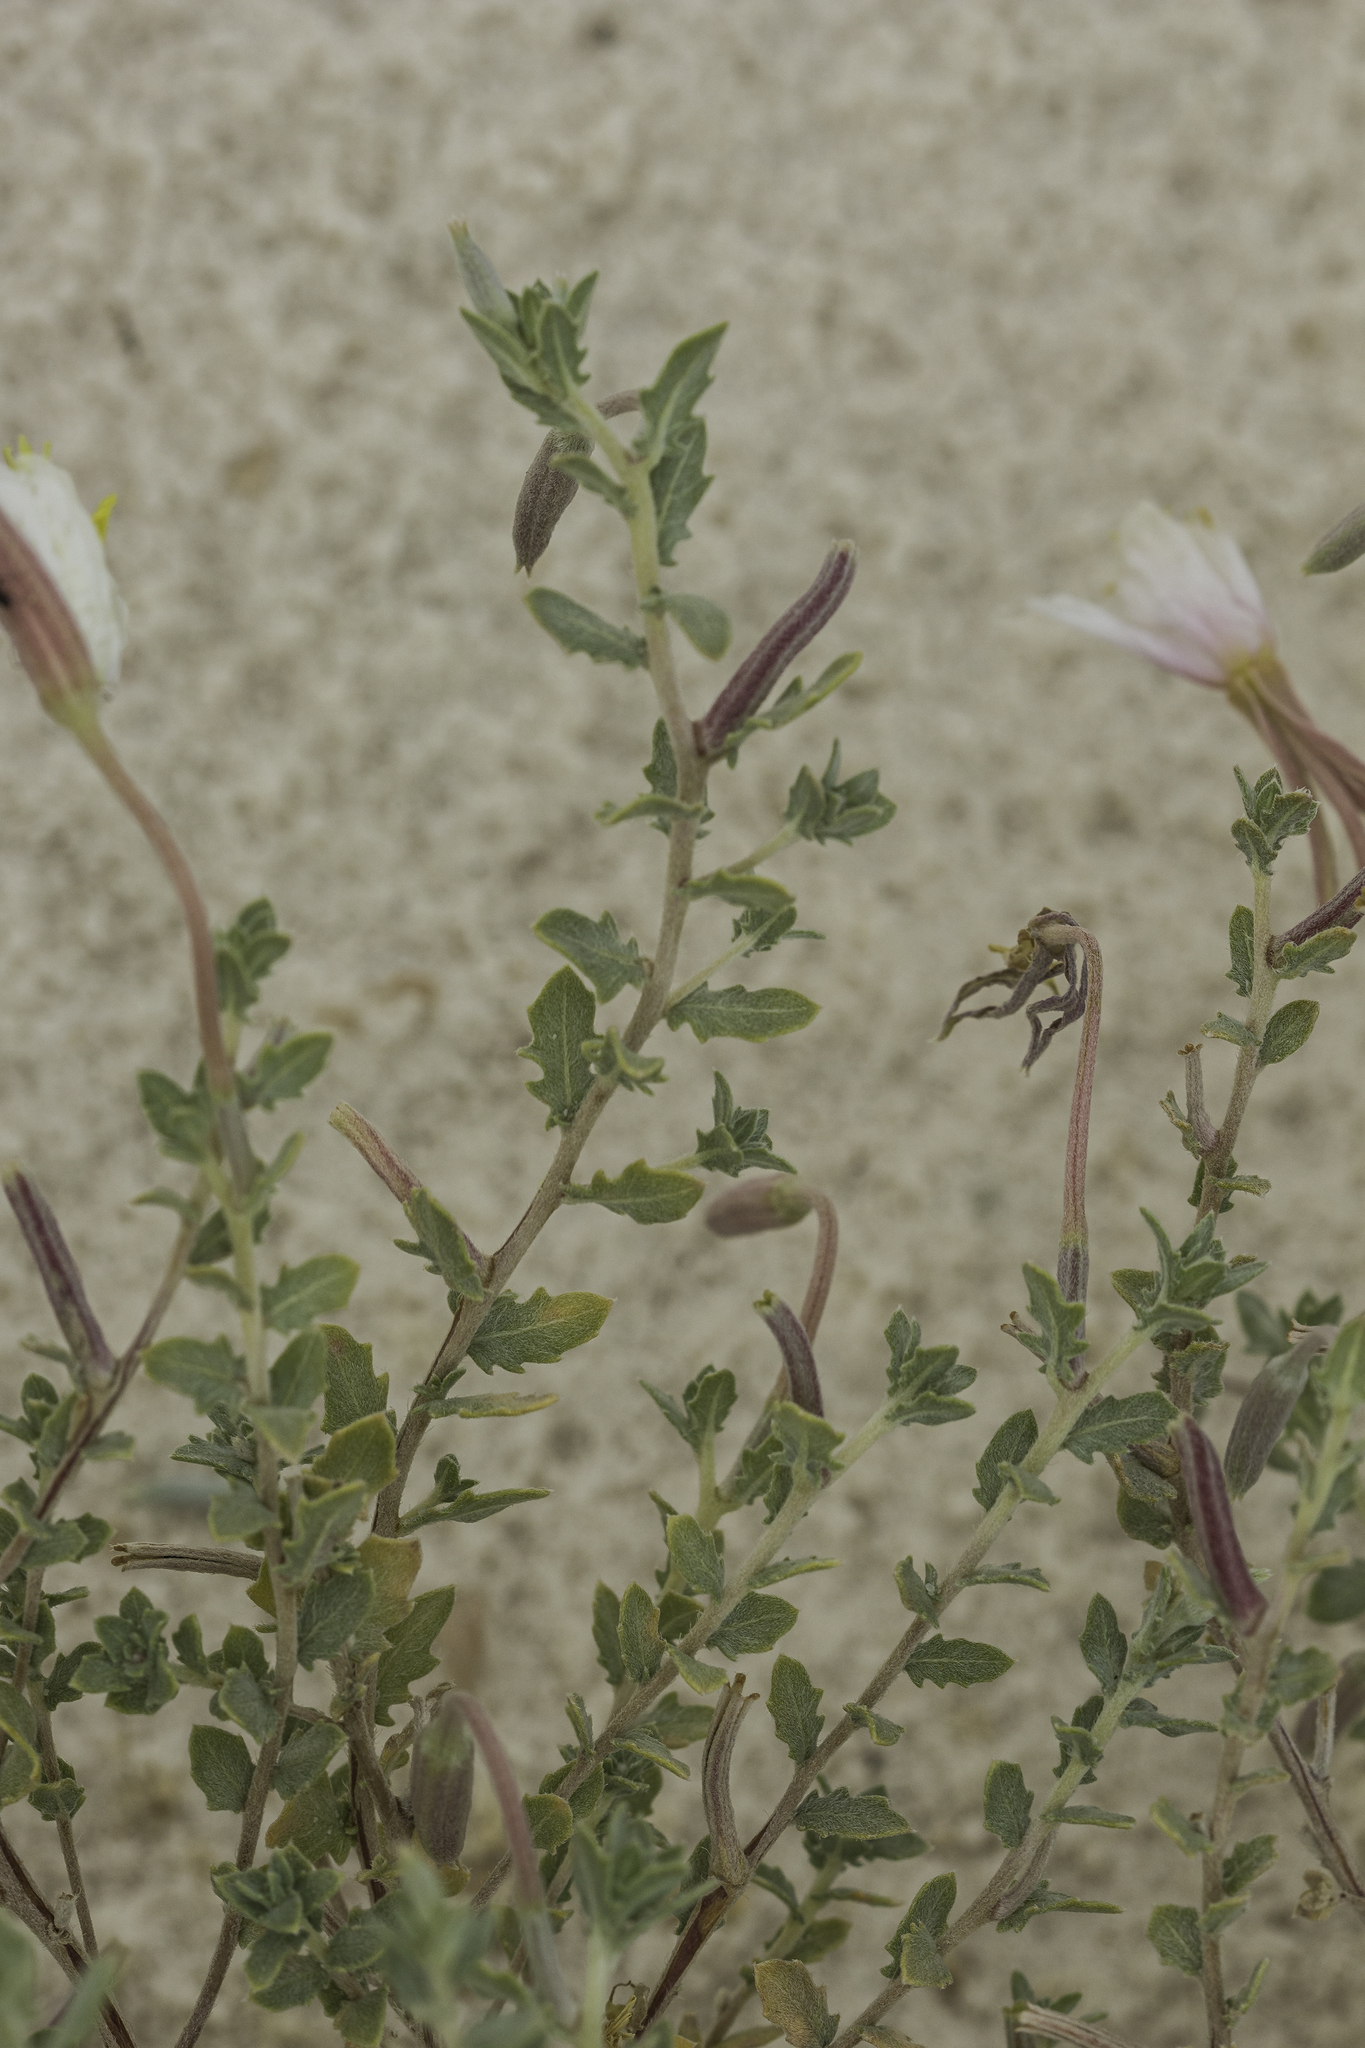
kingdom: Plantae
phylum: Tracheophyta
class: Magnoliopsida
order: Myrtales
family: Onagraceae
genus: Oenothera
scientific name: Oenothera pallida
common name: Pale evening-primrose
